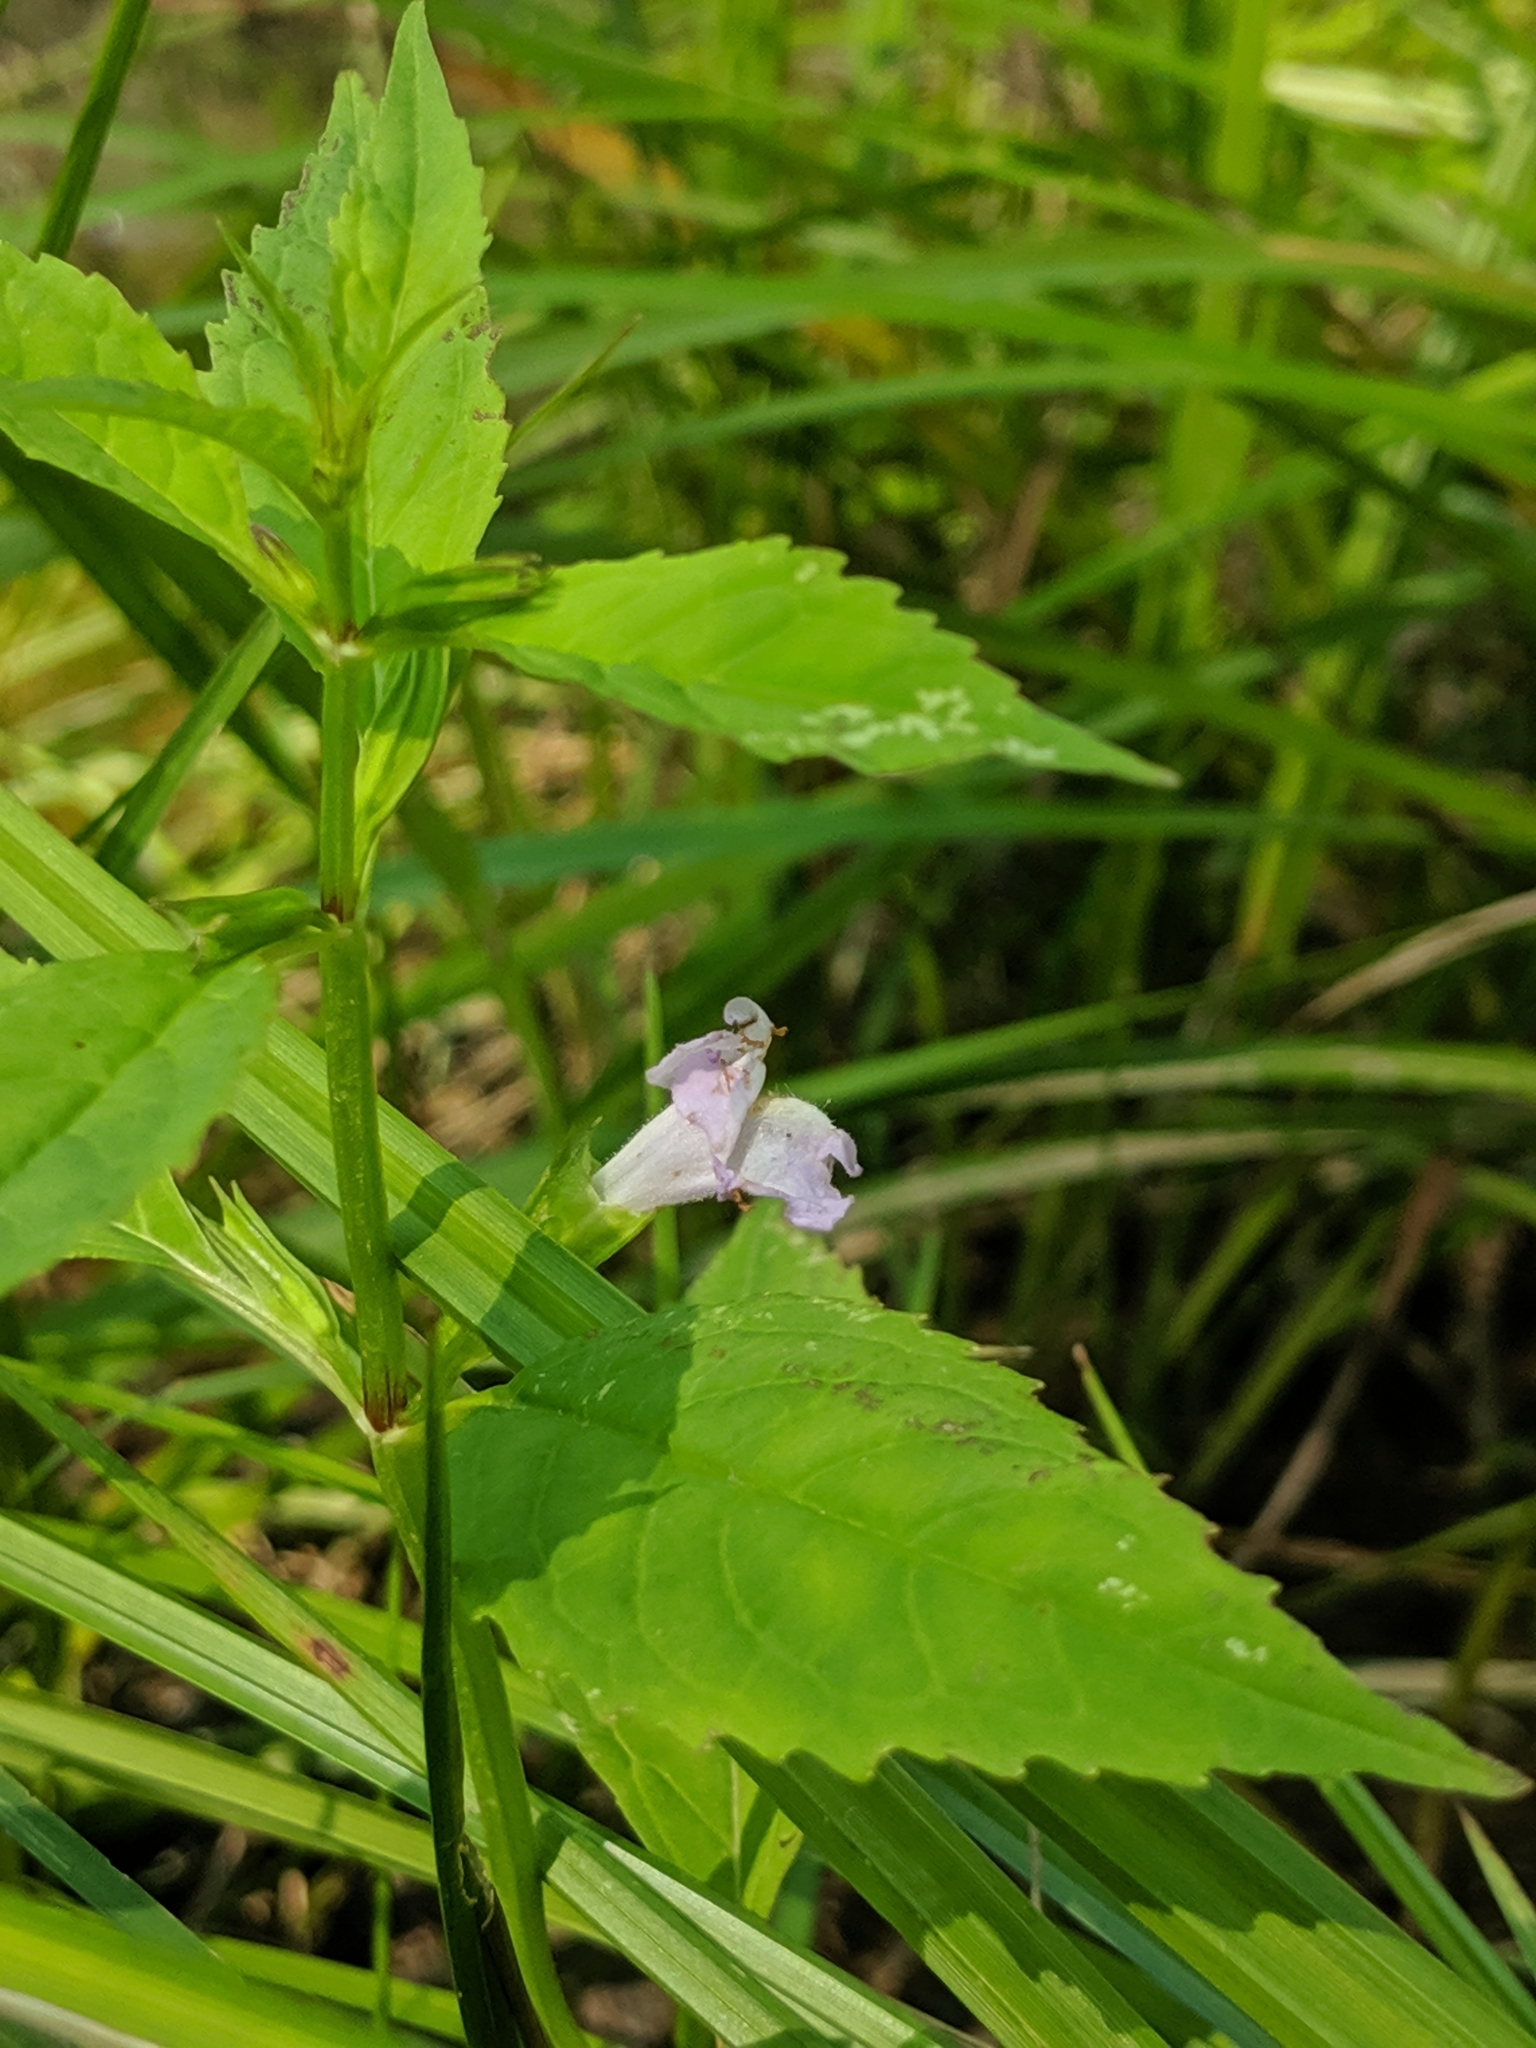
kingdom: Plantae
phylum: Tracheophyta
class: Magnoliopsida
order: Lamiales
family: Phrymaceae
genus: Mimulus
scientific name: Mimulus alatus
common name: Sharp-wing monkey-flower
